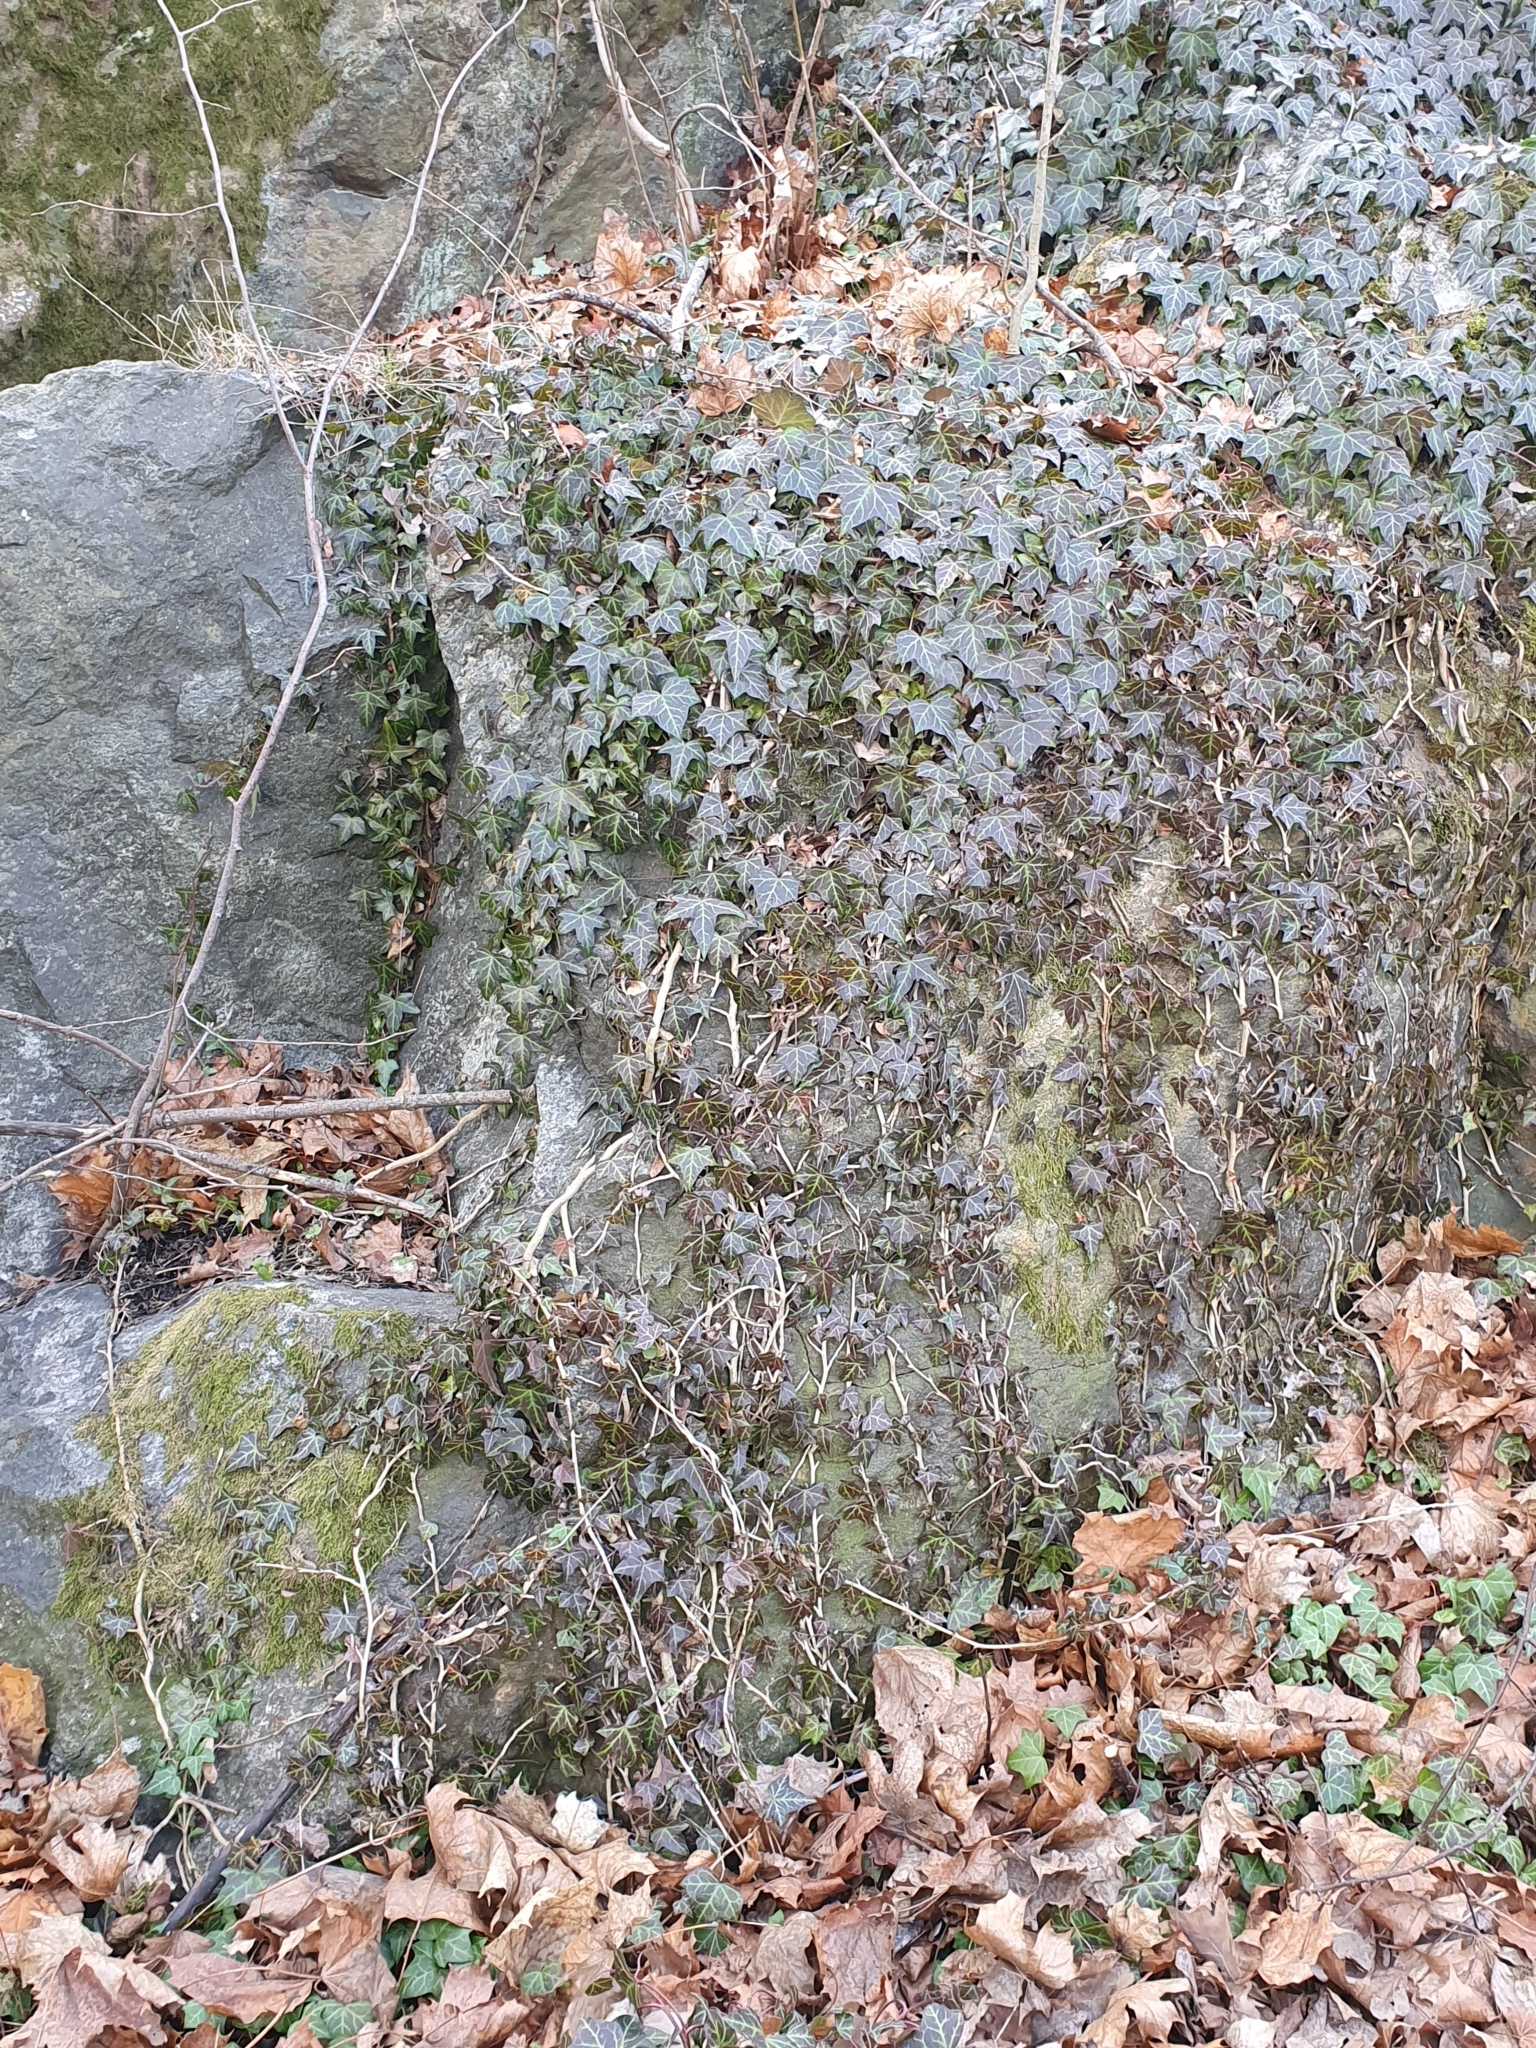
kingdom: Plantae
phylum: Tracheophyta
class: Magnoliopsida
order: Apiales
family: Araliaceae
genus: Hedera
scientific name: Hedera helix
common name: Ivy
